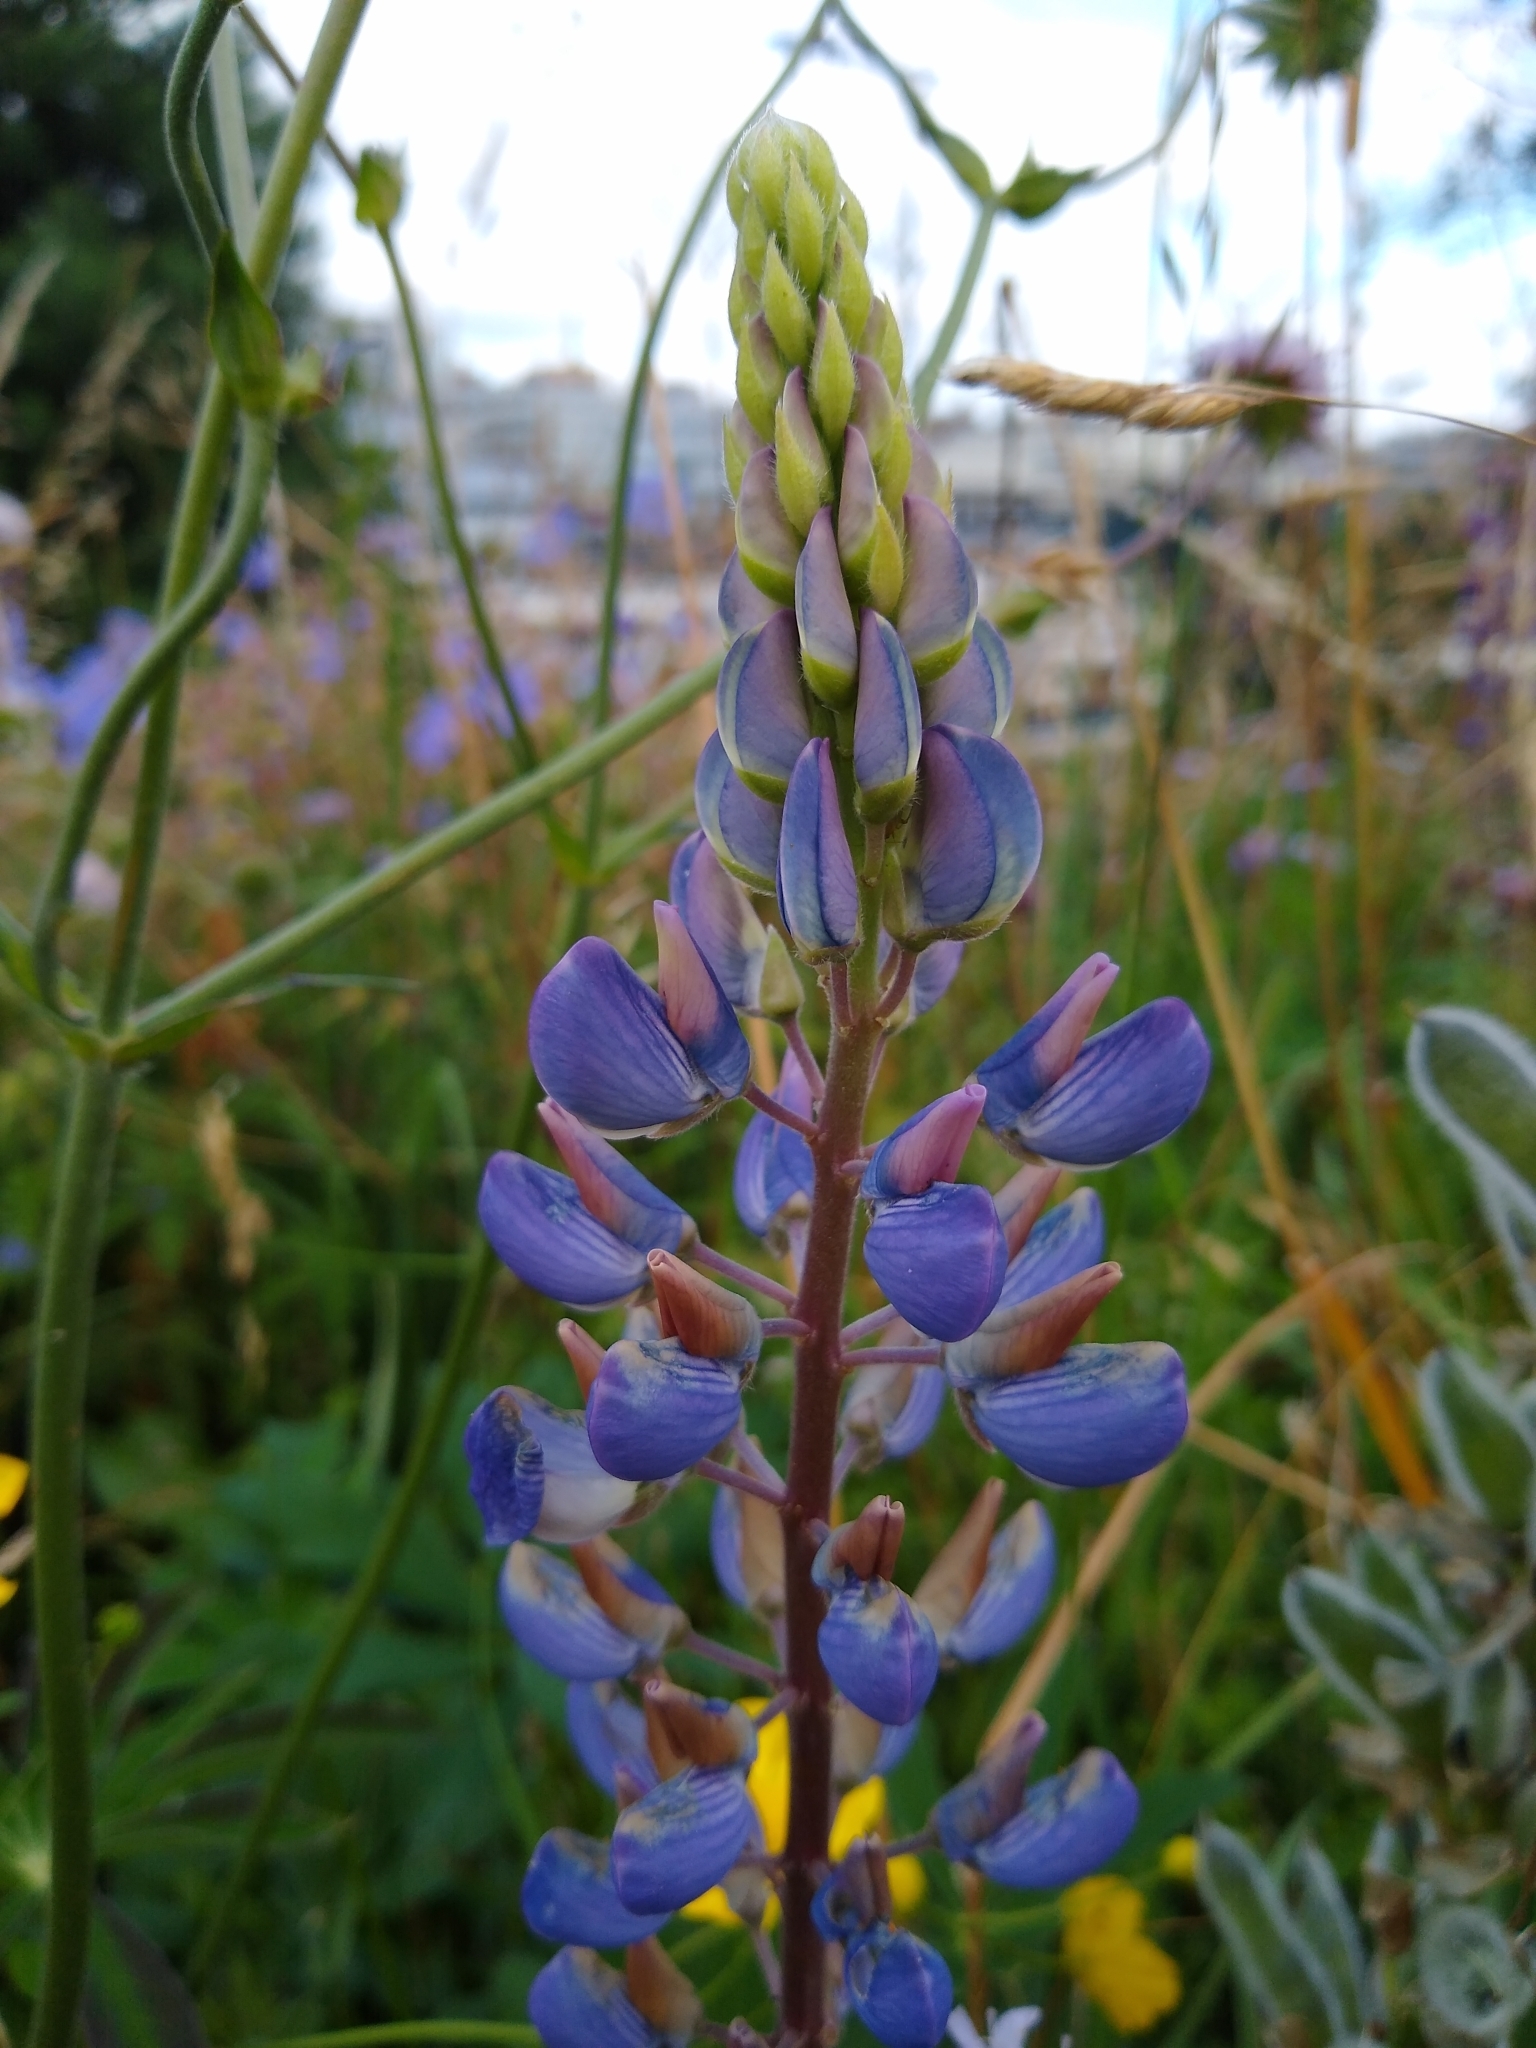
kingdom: Plantae
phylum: Tracheophyta
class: Magnoliopsida
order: Fabales
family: Fabaceae
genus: Lupinus
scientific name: Lupinus polyphyllus
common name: Garden lupin
